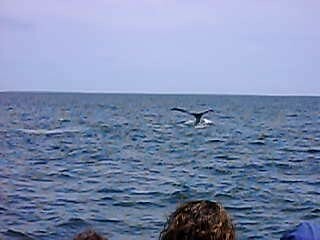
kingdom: Animalia
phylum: Chordata
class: Mammalia
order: Cetacea
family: Balaenidae
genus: Eubalaena
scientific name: Eubalaena glacialis
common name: North atlantic right whale
